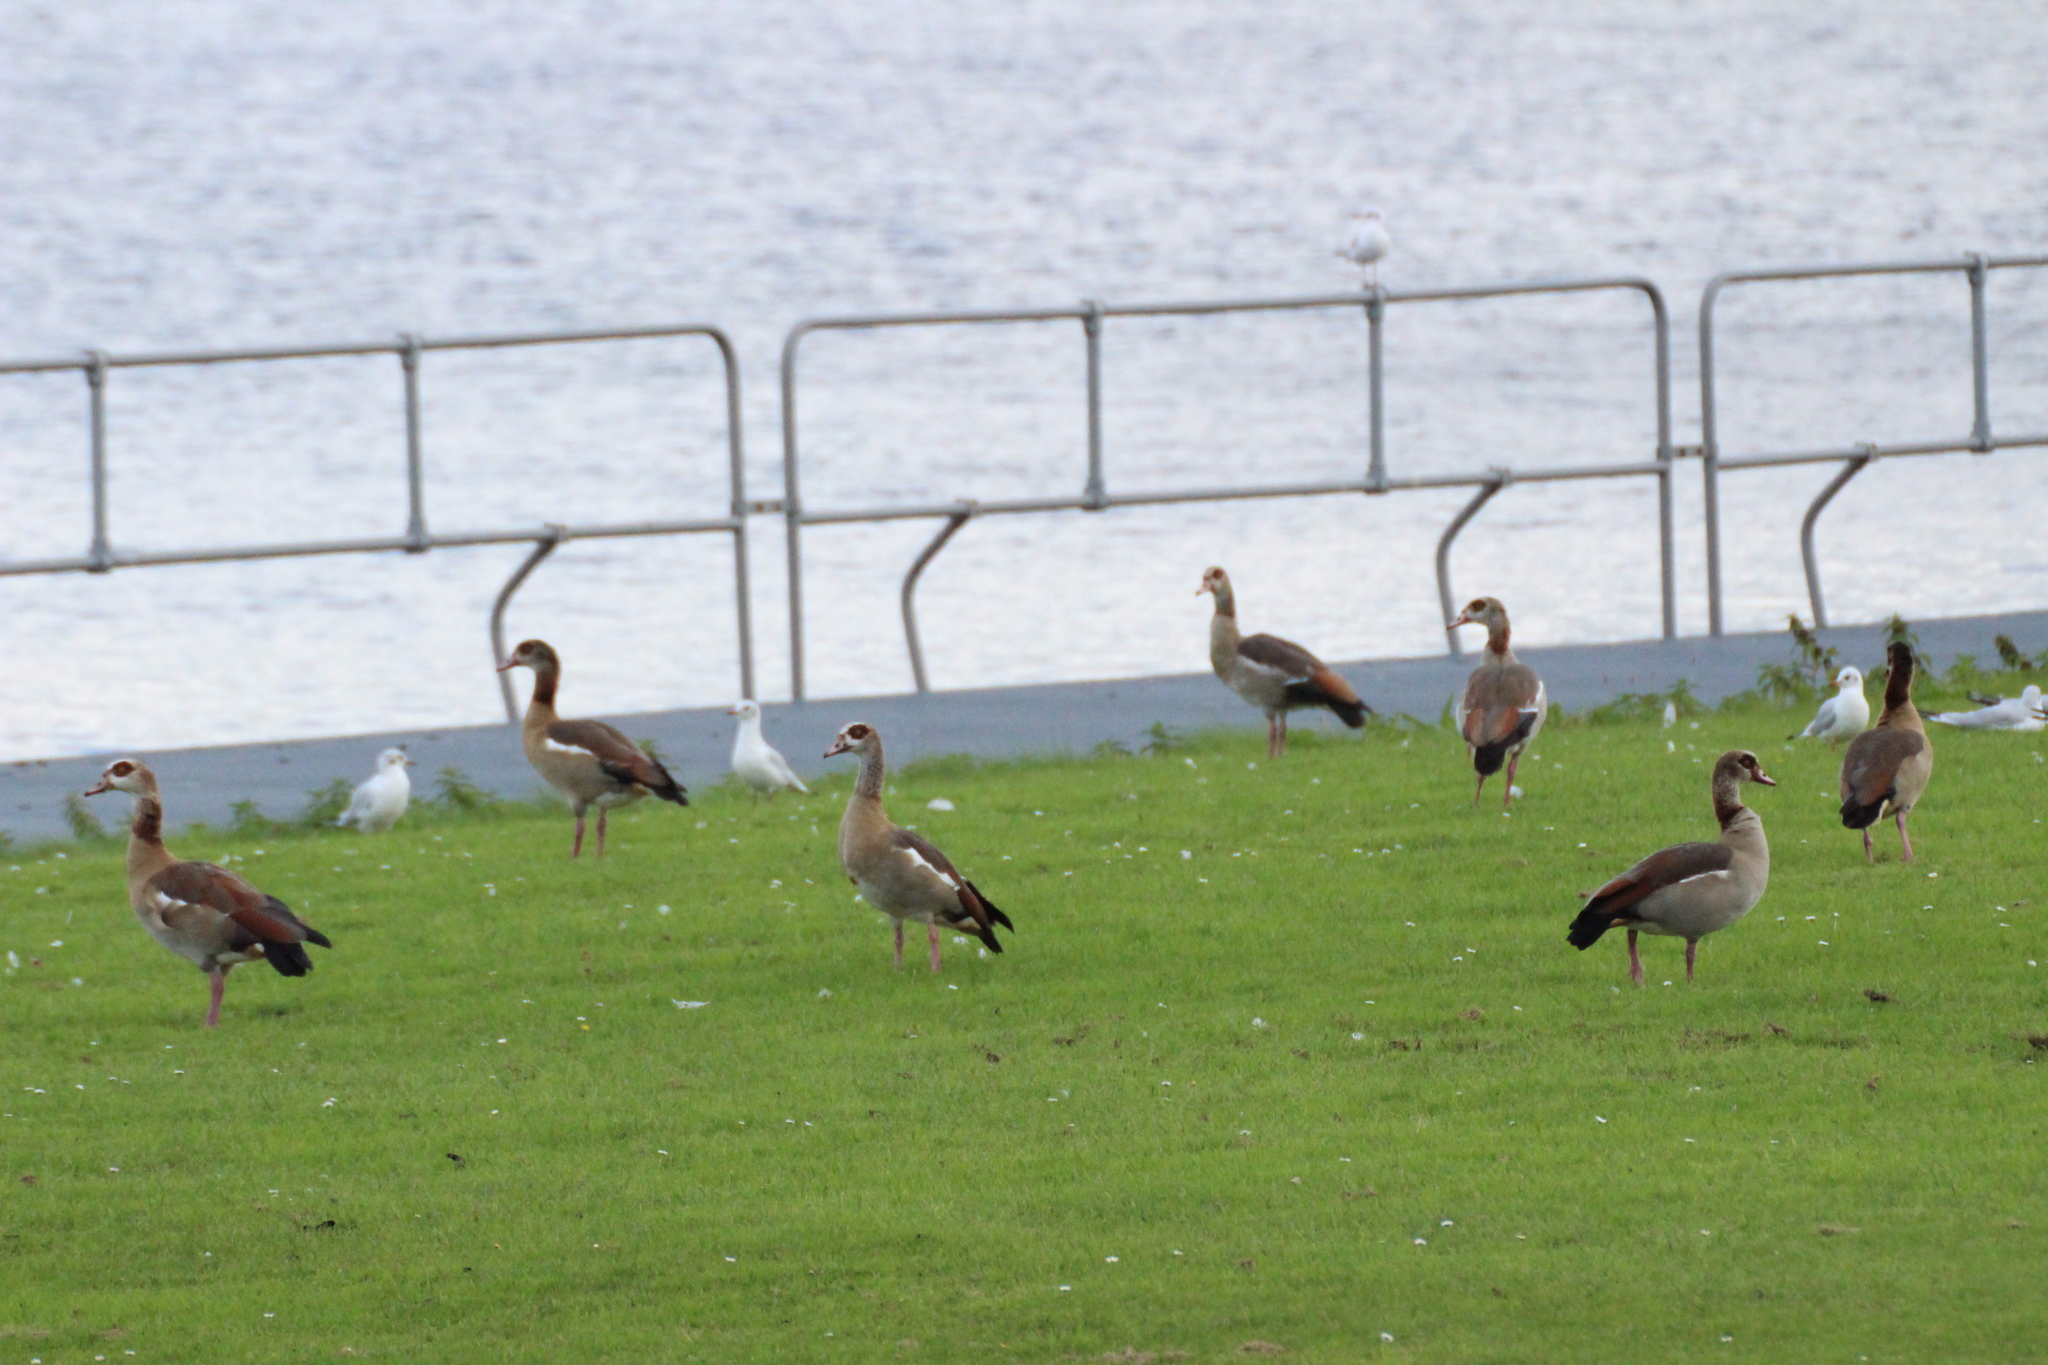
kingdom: Animalia
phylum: Chordata
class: Aves
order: Anseriformes
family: Anatidae
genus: Alopochen
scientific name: Alopochen aegyptiaca
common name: Egyptian goose
